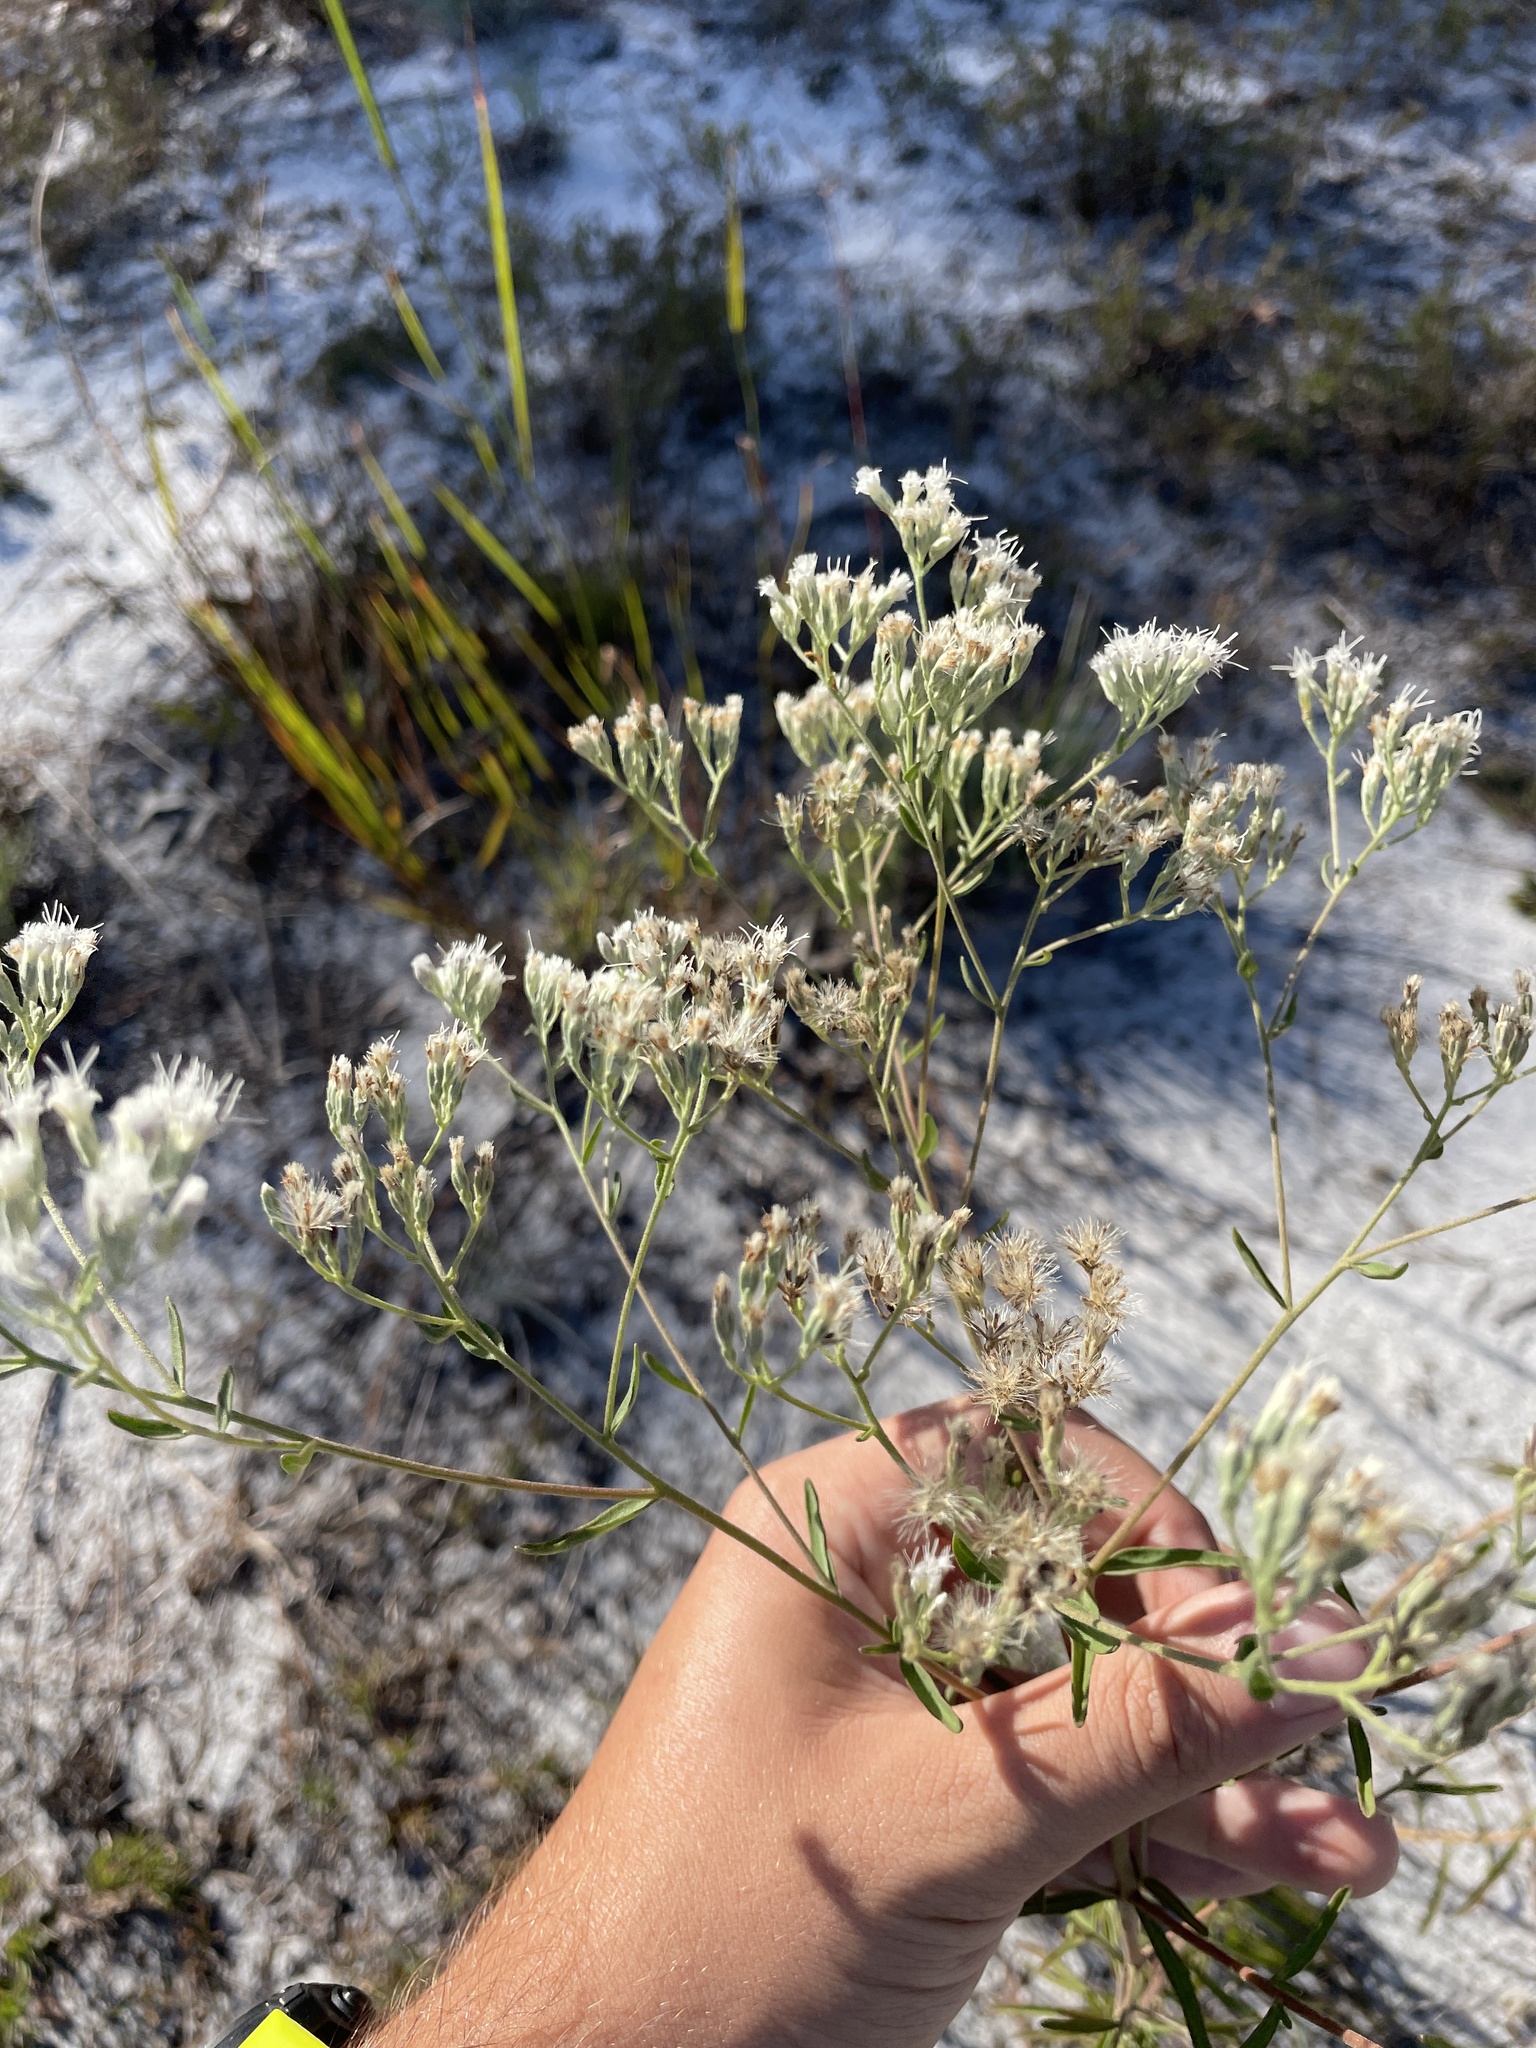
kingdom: Plantae
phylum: Tracheophyta
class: Magnoliopsida
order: Asterales
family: Asteraceae
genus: Eupatorium
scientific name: Eupatorium mohrii
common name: Mohr's thoroughwort
